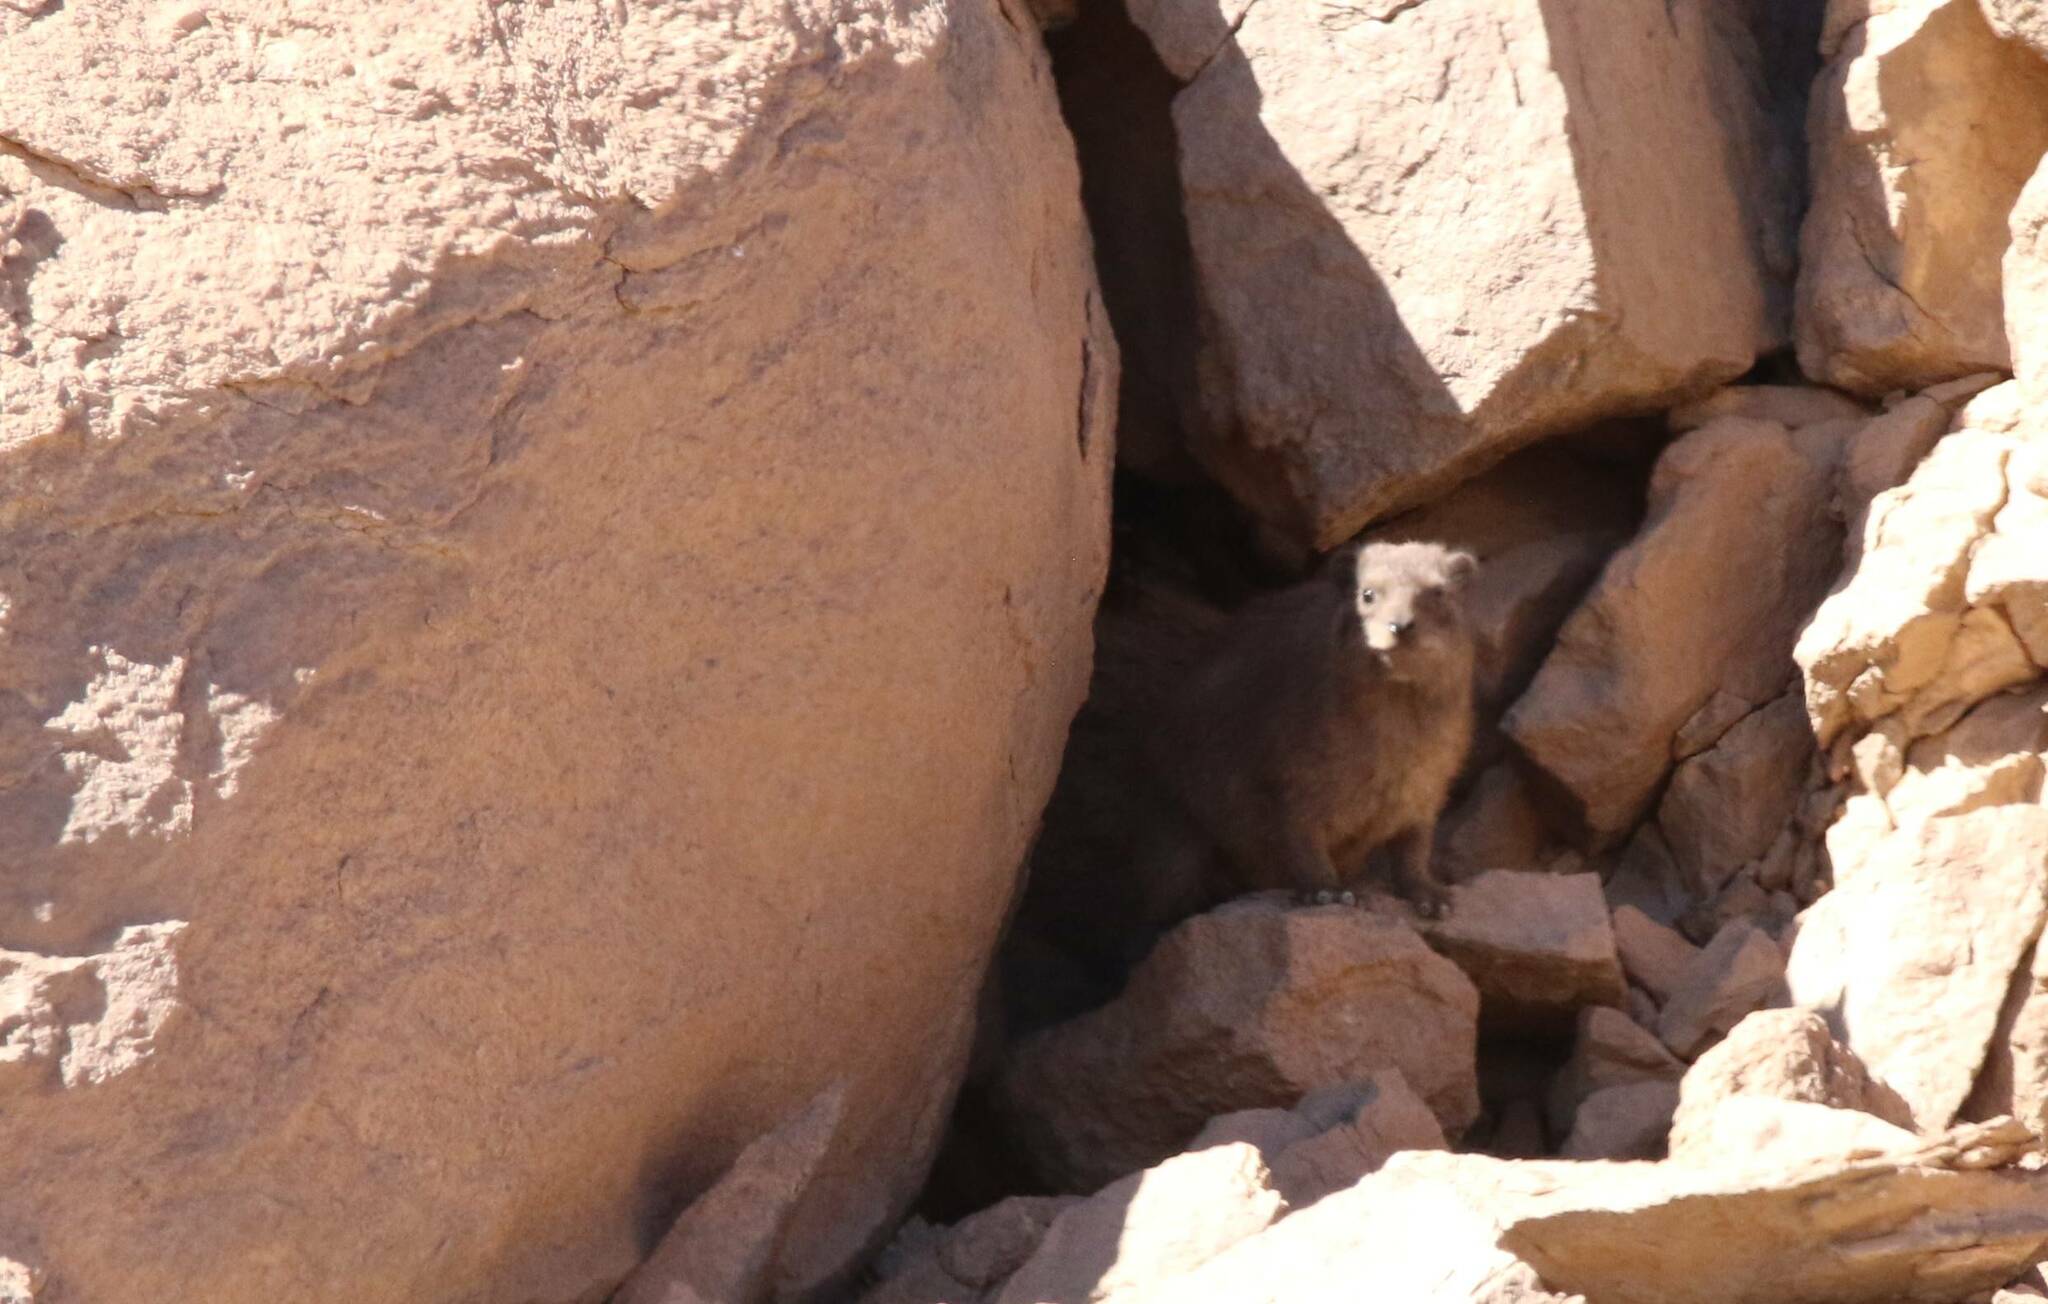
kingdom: Animalia
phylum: Chordata
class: Mammalia
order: Hyracoidea
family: Procaviidae
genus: Procavia
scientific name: Procavia capensis
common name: Rock hyrax
